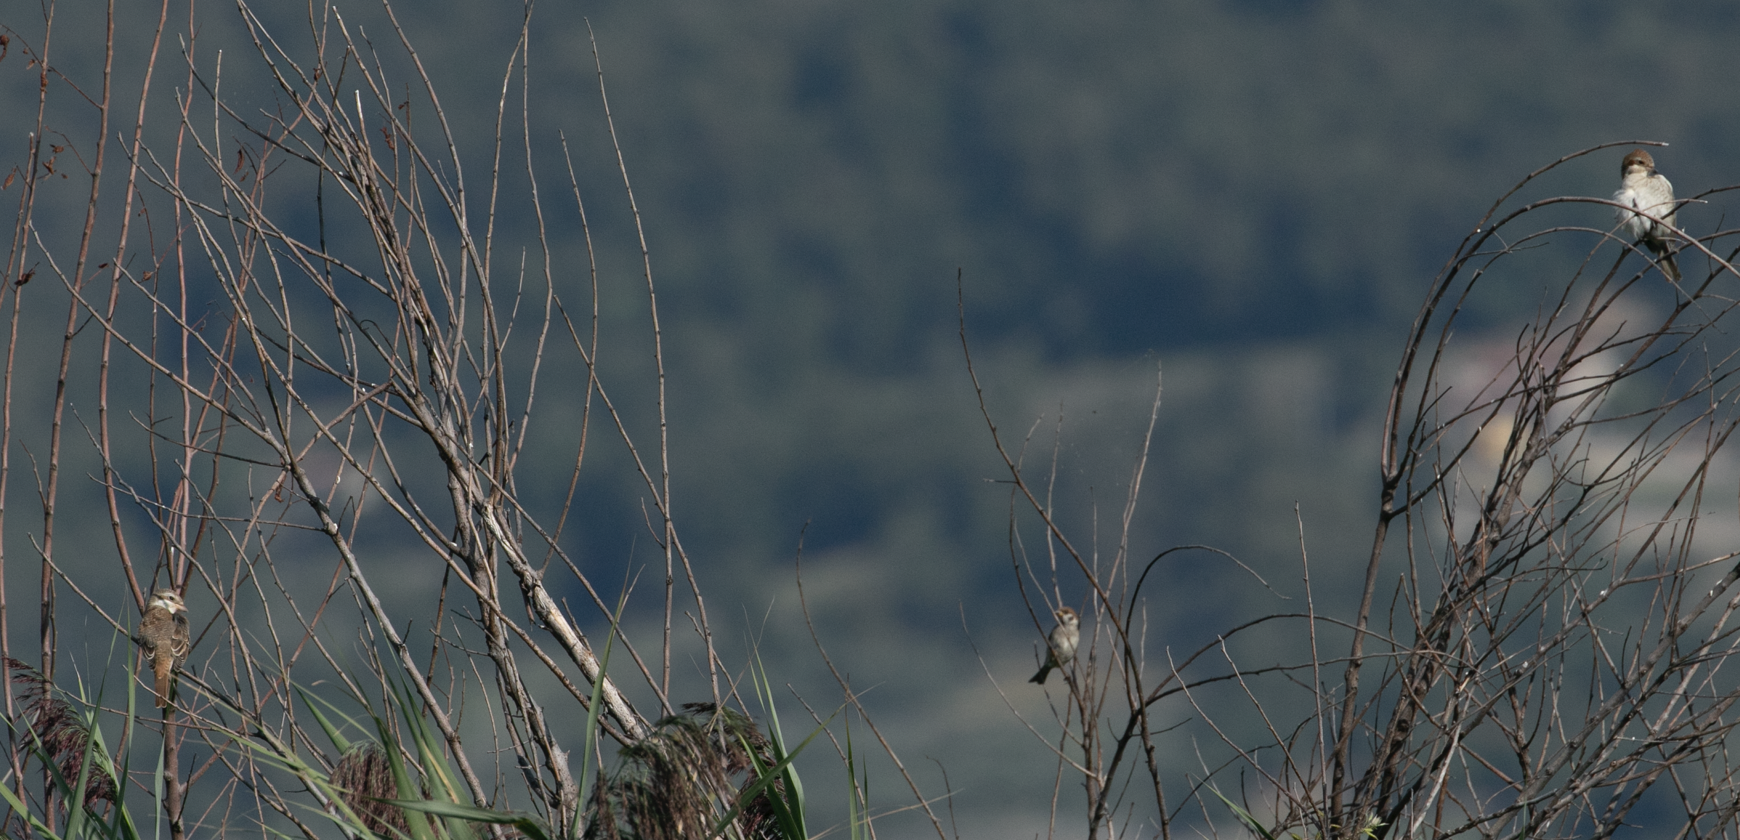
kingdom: Animalia
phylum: Chordata
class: Aves
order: Passeriformes
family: Laniidae
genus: Lanius
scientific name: Lanius collurio
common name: Red-backed shrike
